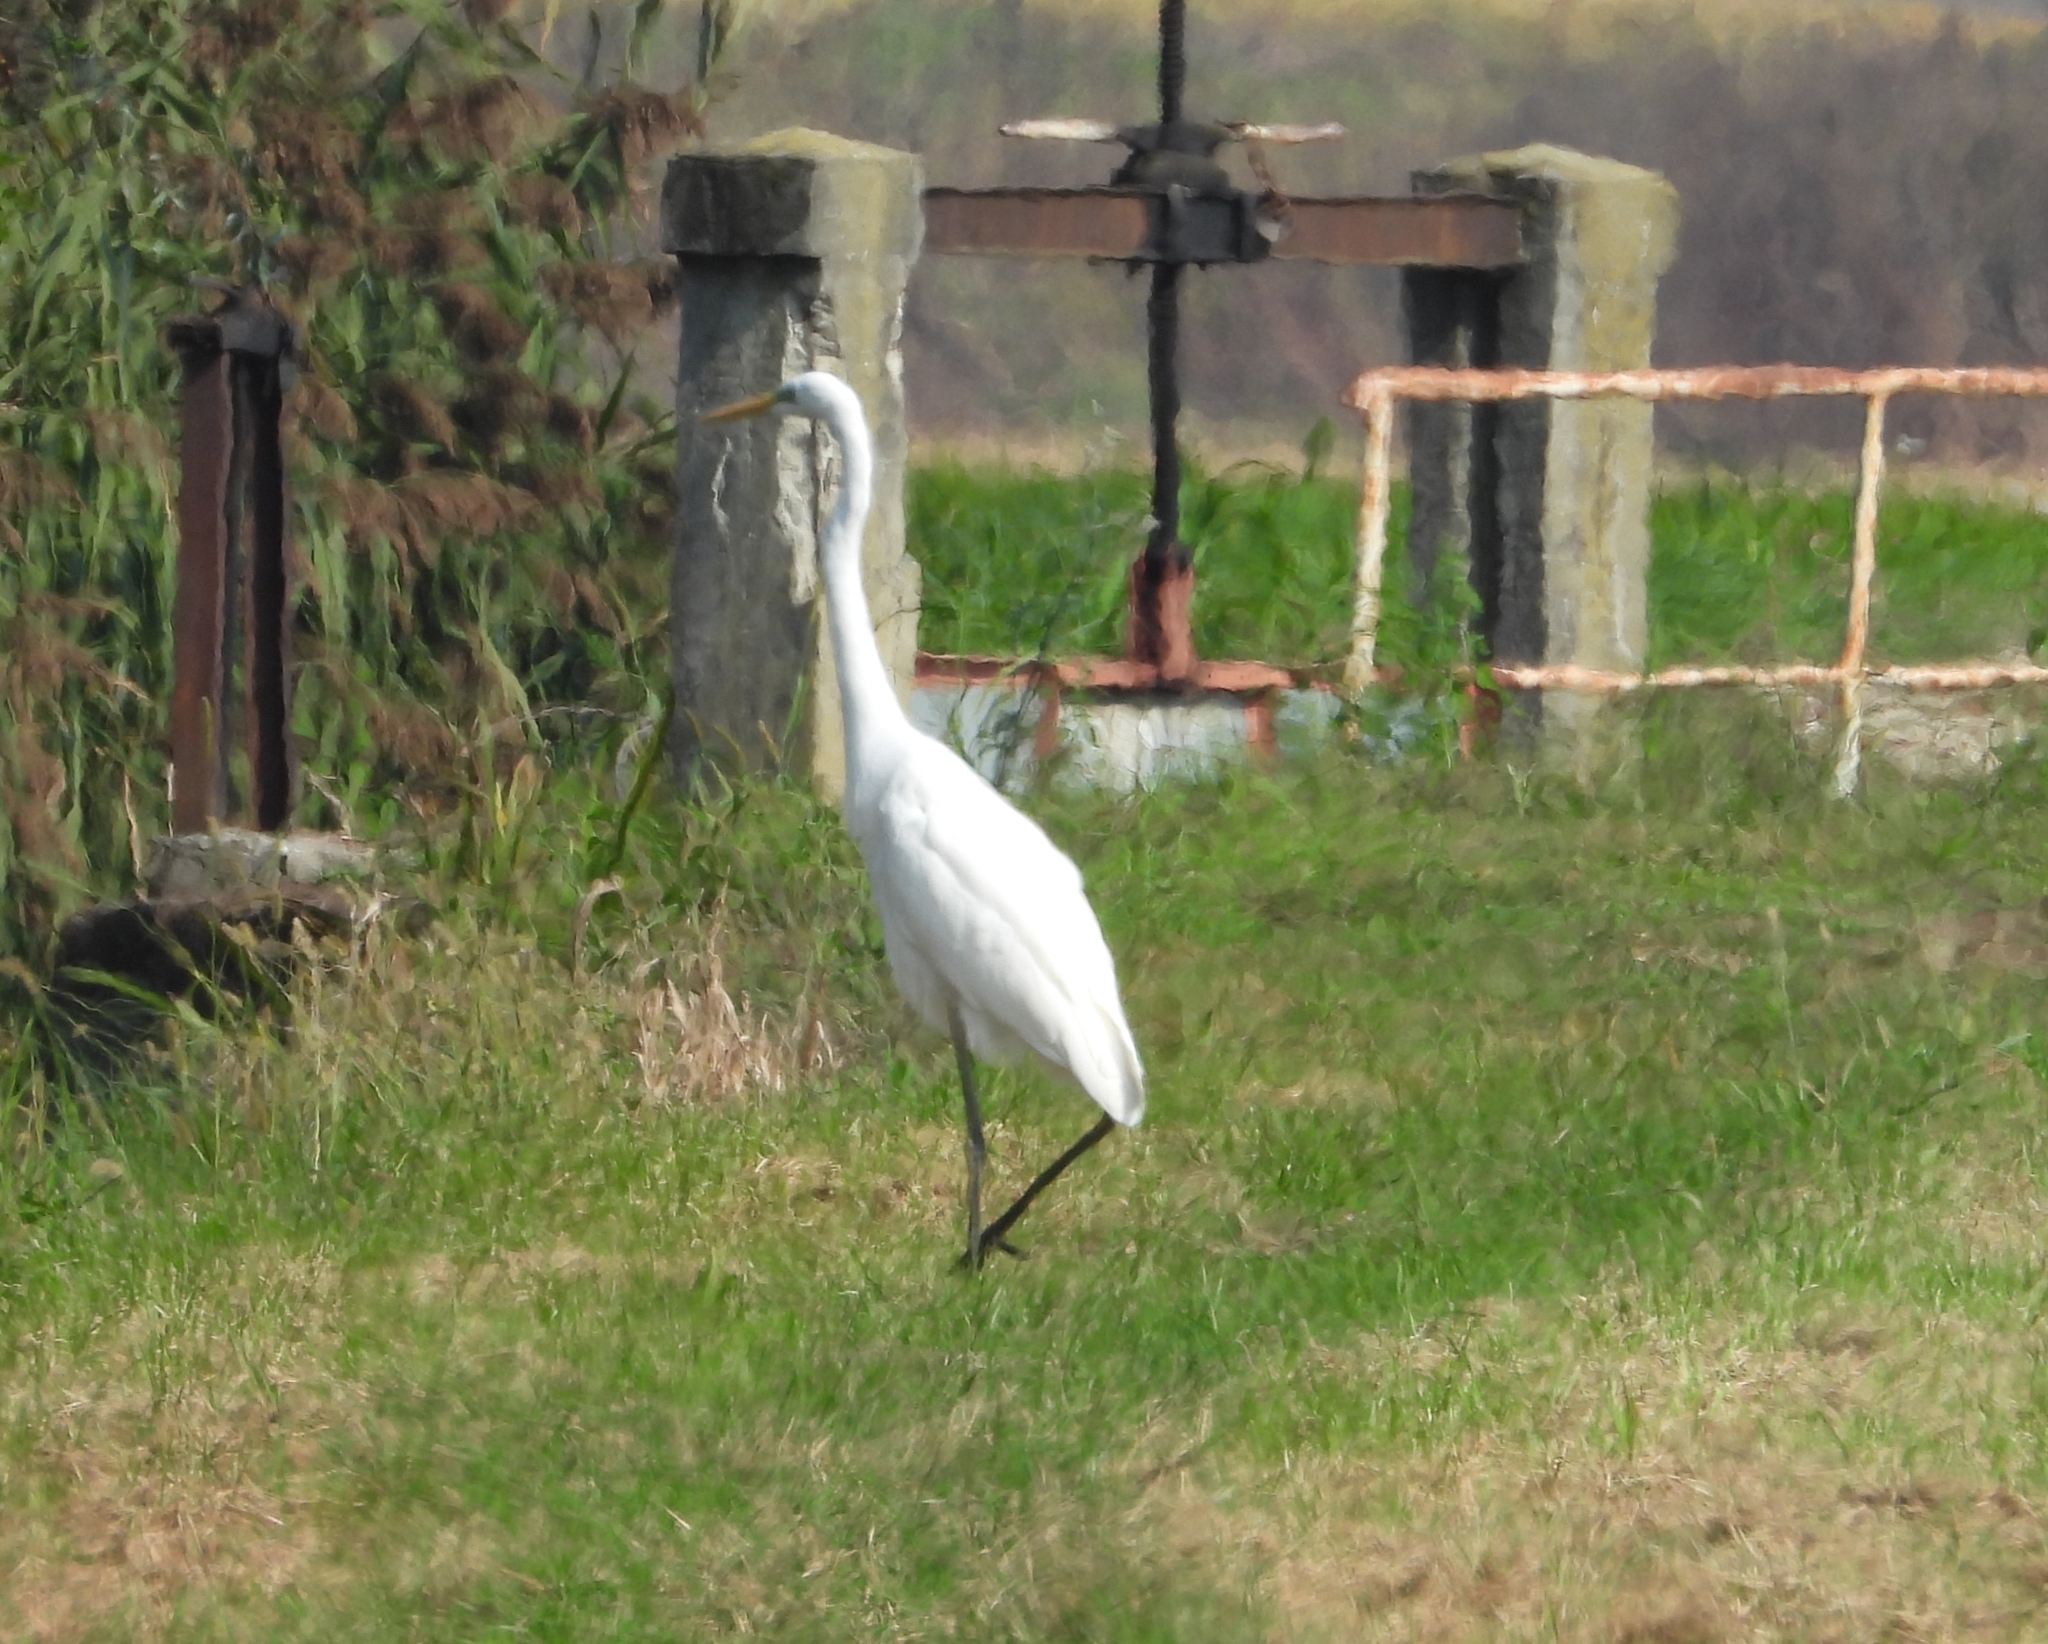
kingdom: Animalia
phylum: Chordata
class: Aves
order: Pelecaniformes
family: Ardeidae
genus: Ardea
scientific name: Ardea alba
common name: Great egret
